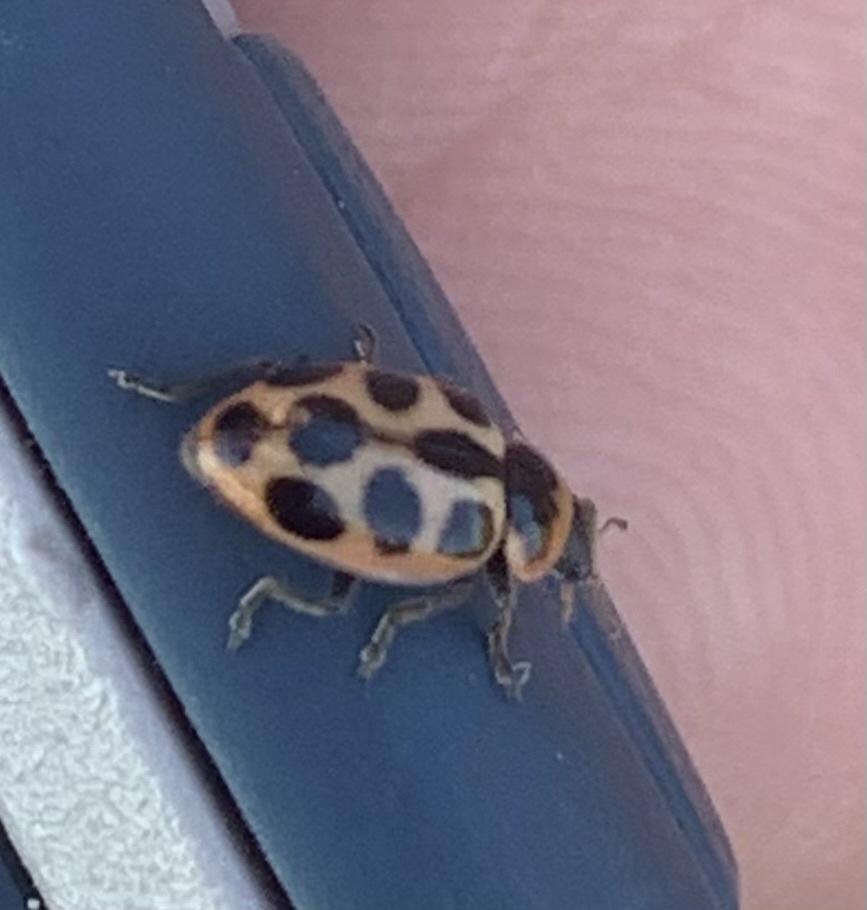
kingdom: Animalia
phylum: Arthropoda
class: Insecta
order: Coleoptera
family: Coccinellidae
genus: Naemia
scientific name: Naemia seriata
